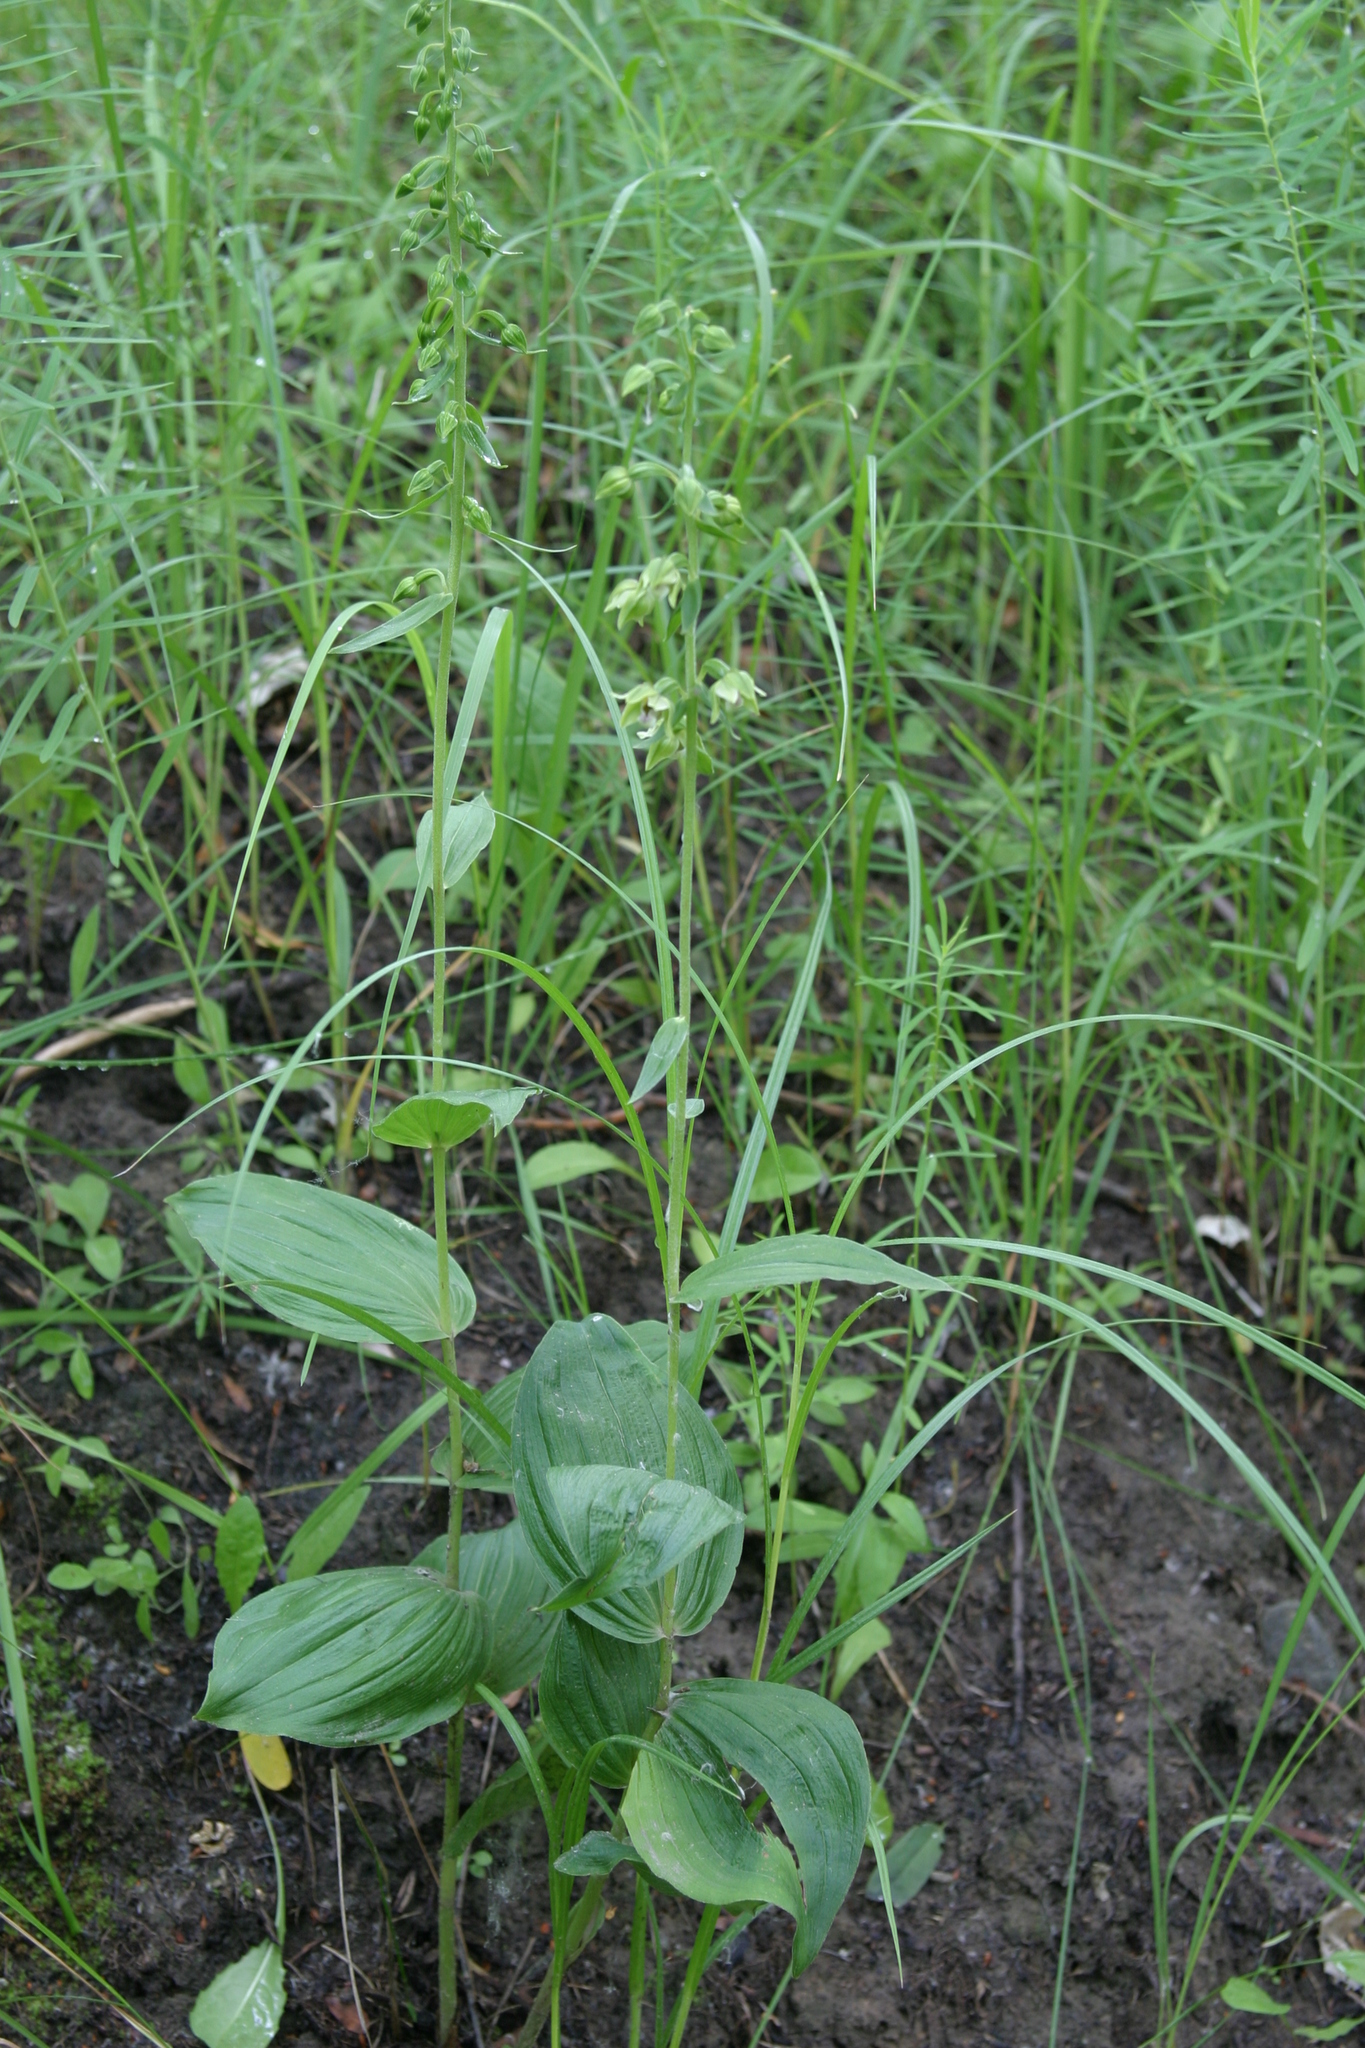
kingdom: Plantae
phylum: Tracheophyta
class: Liliopsida
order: Asparagales
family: Orchidaceae
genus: Epipactis
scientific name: Epipactis helleborine
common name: Broad-leaved helleborine
